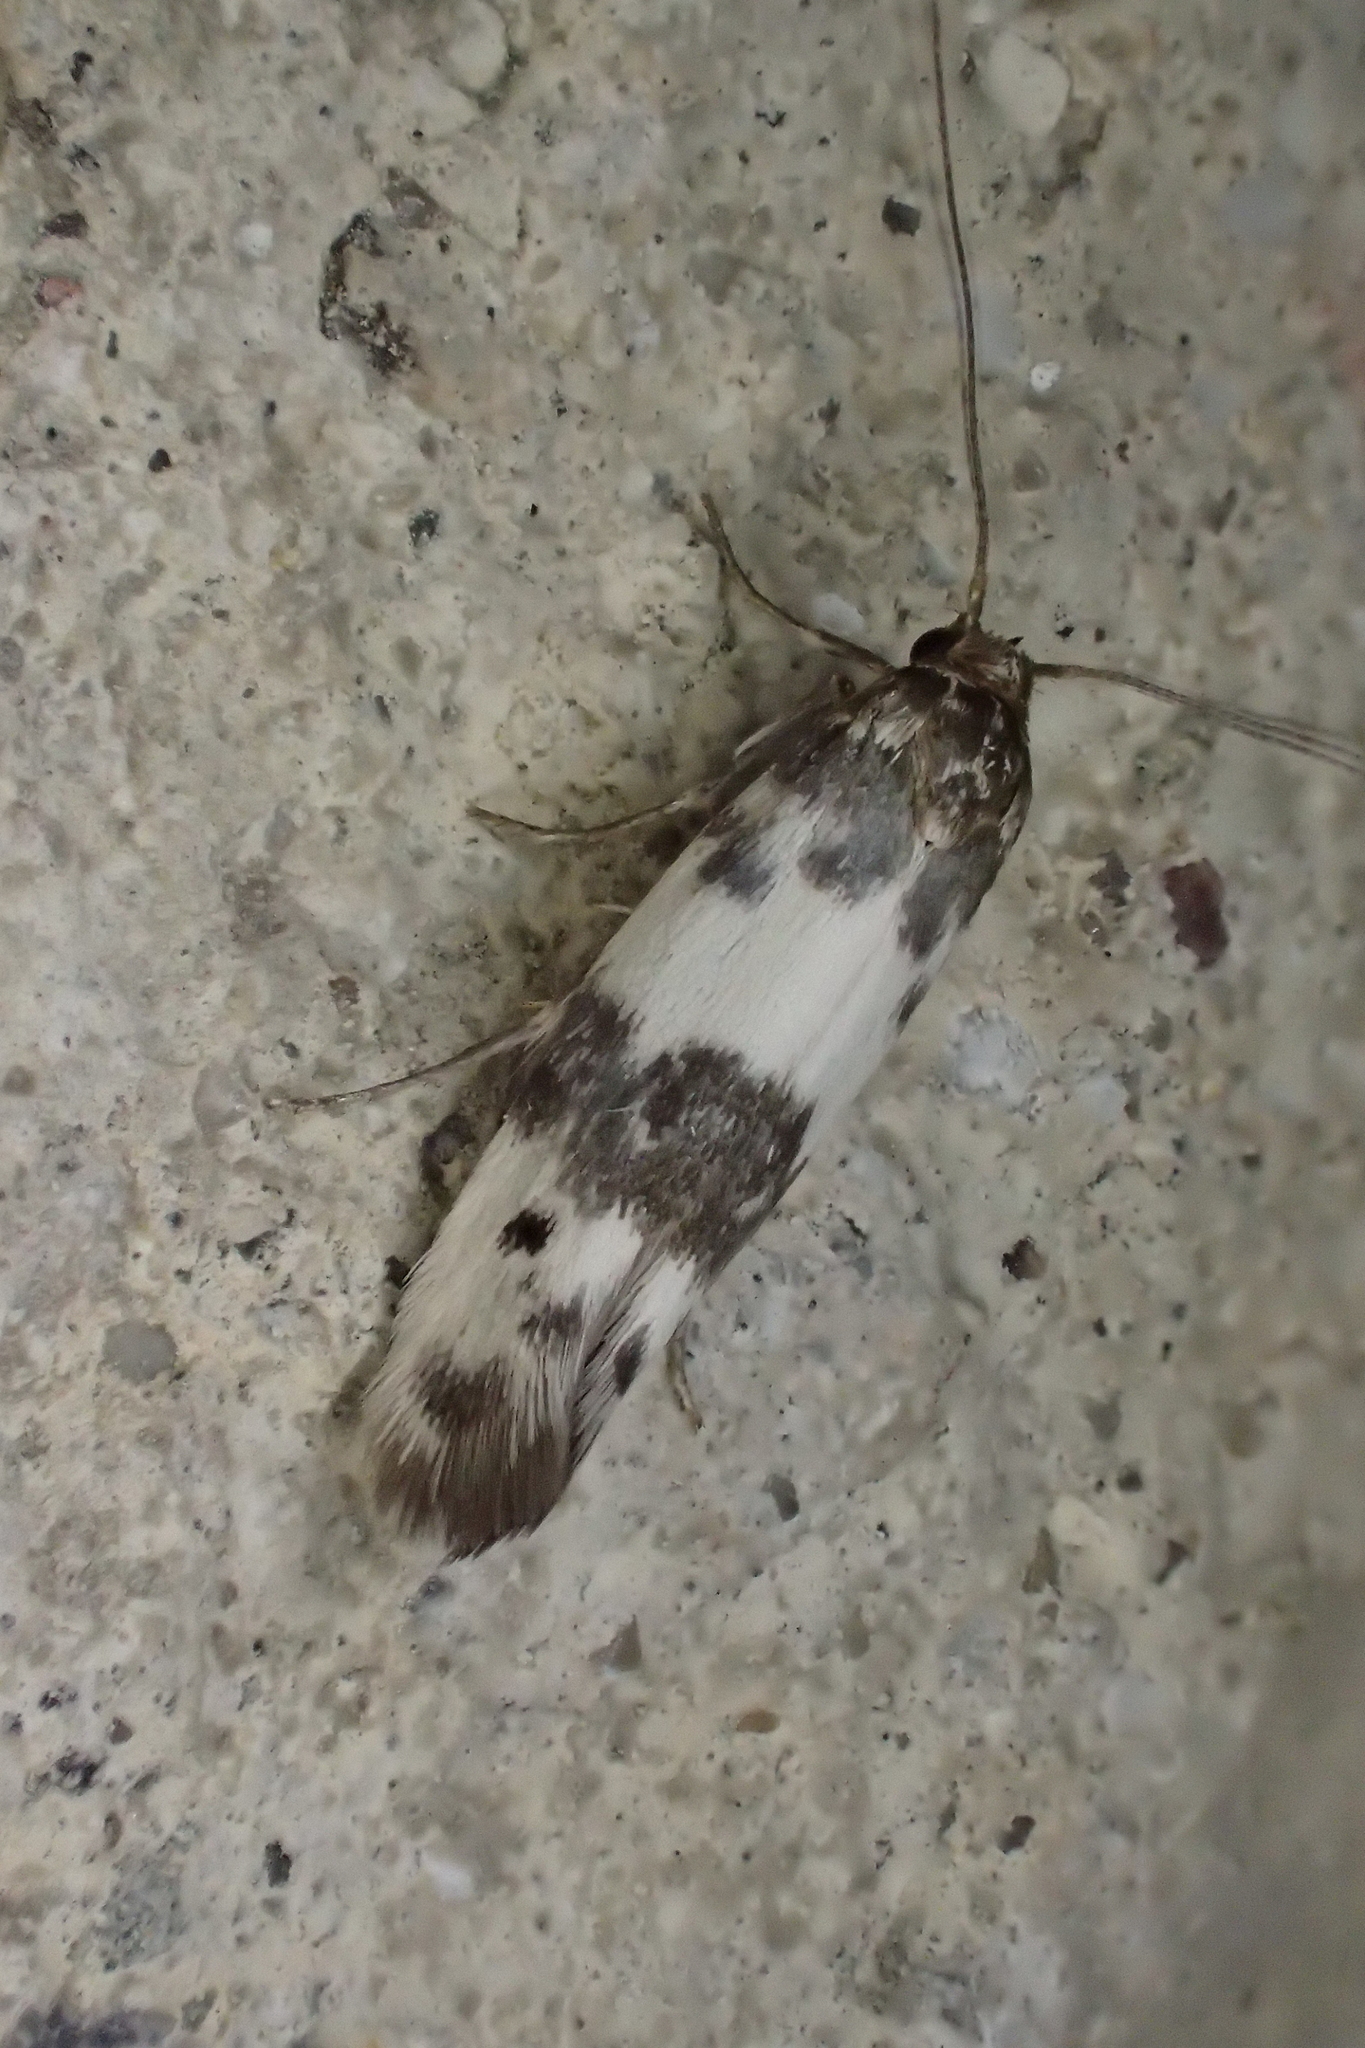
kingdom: Animalia
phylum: Arthropoda
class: Insecta
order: Lepidoptera
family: Scythrididae
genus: Enolmis
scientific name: Enolmis acanthella
